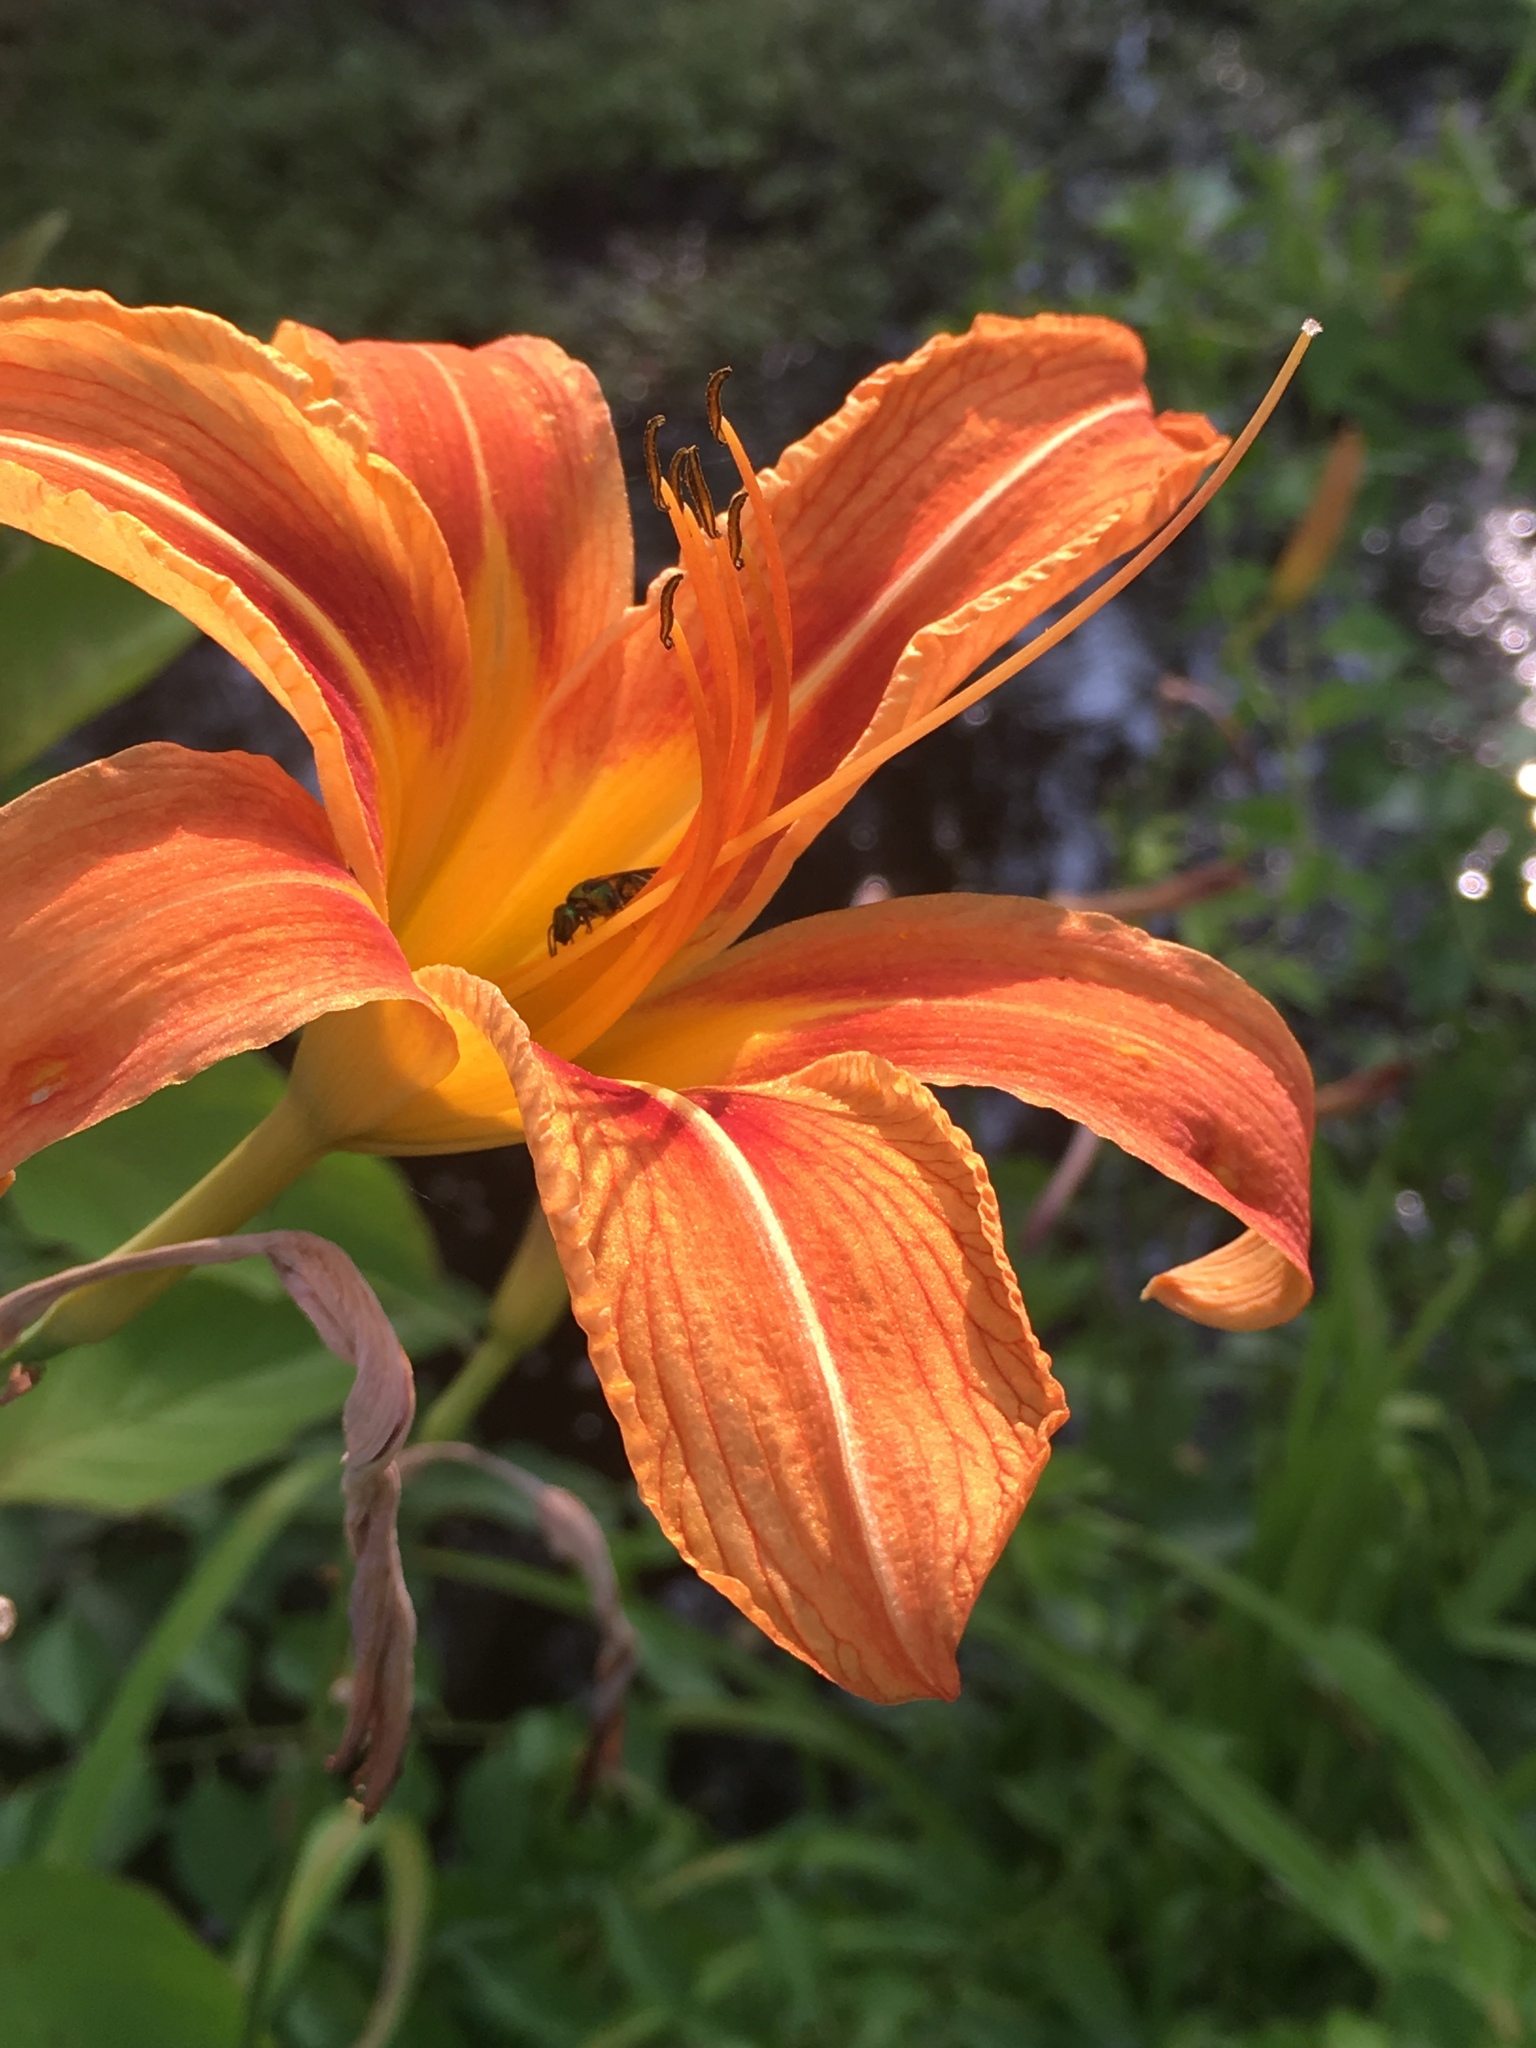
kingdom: Plantae
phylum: Tracheophyta
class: Liliopsida
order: Asparagales
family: Asphodelaceae
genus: Hemerocallis
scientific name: Hemerocallis fulva
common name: Orange day-lily
